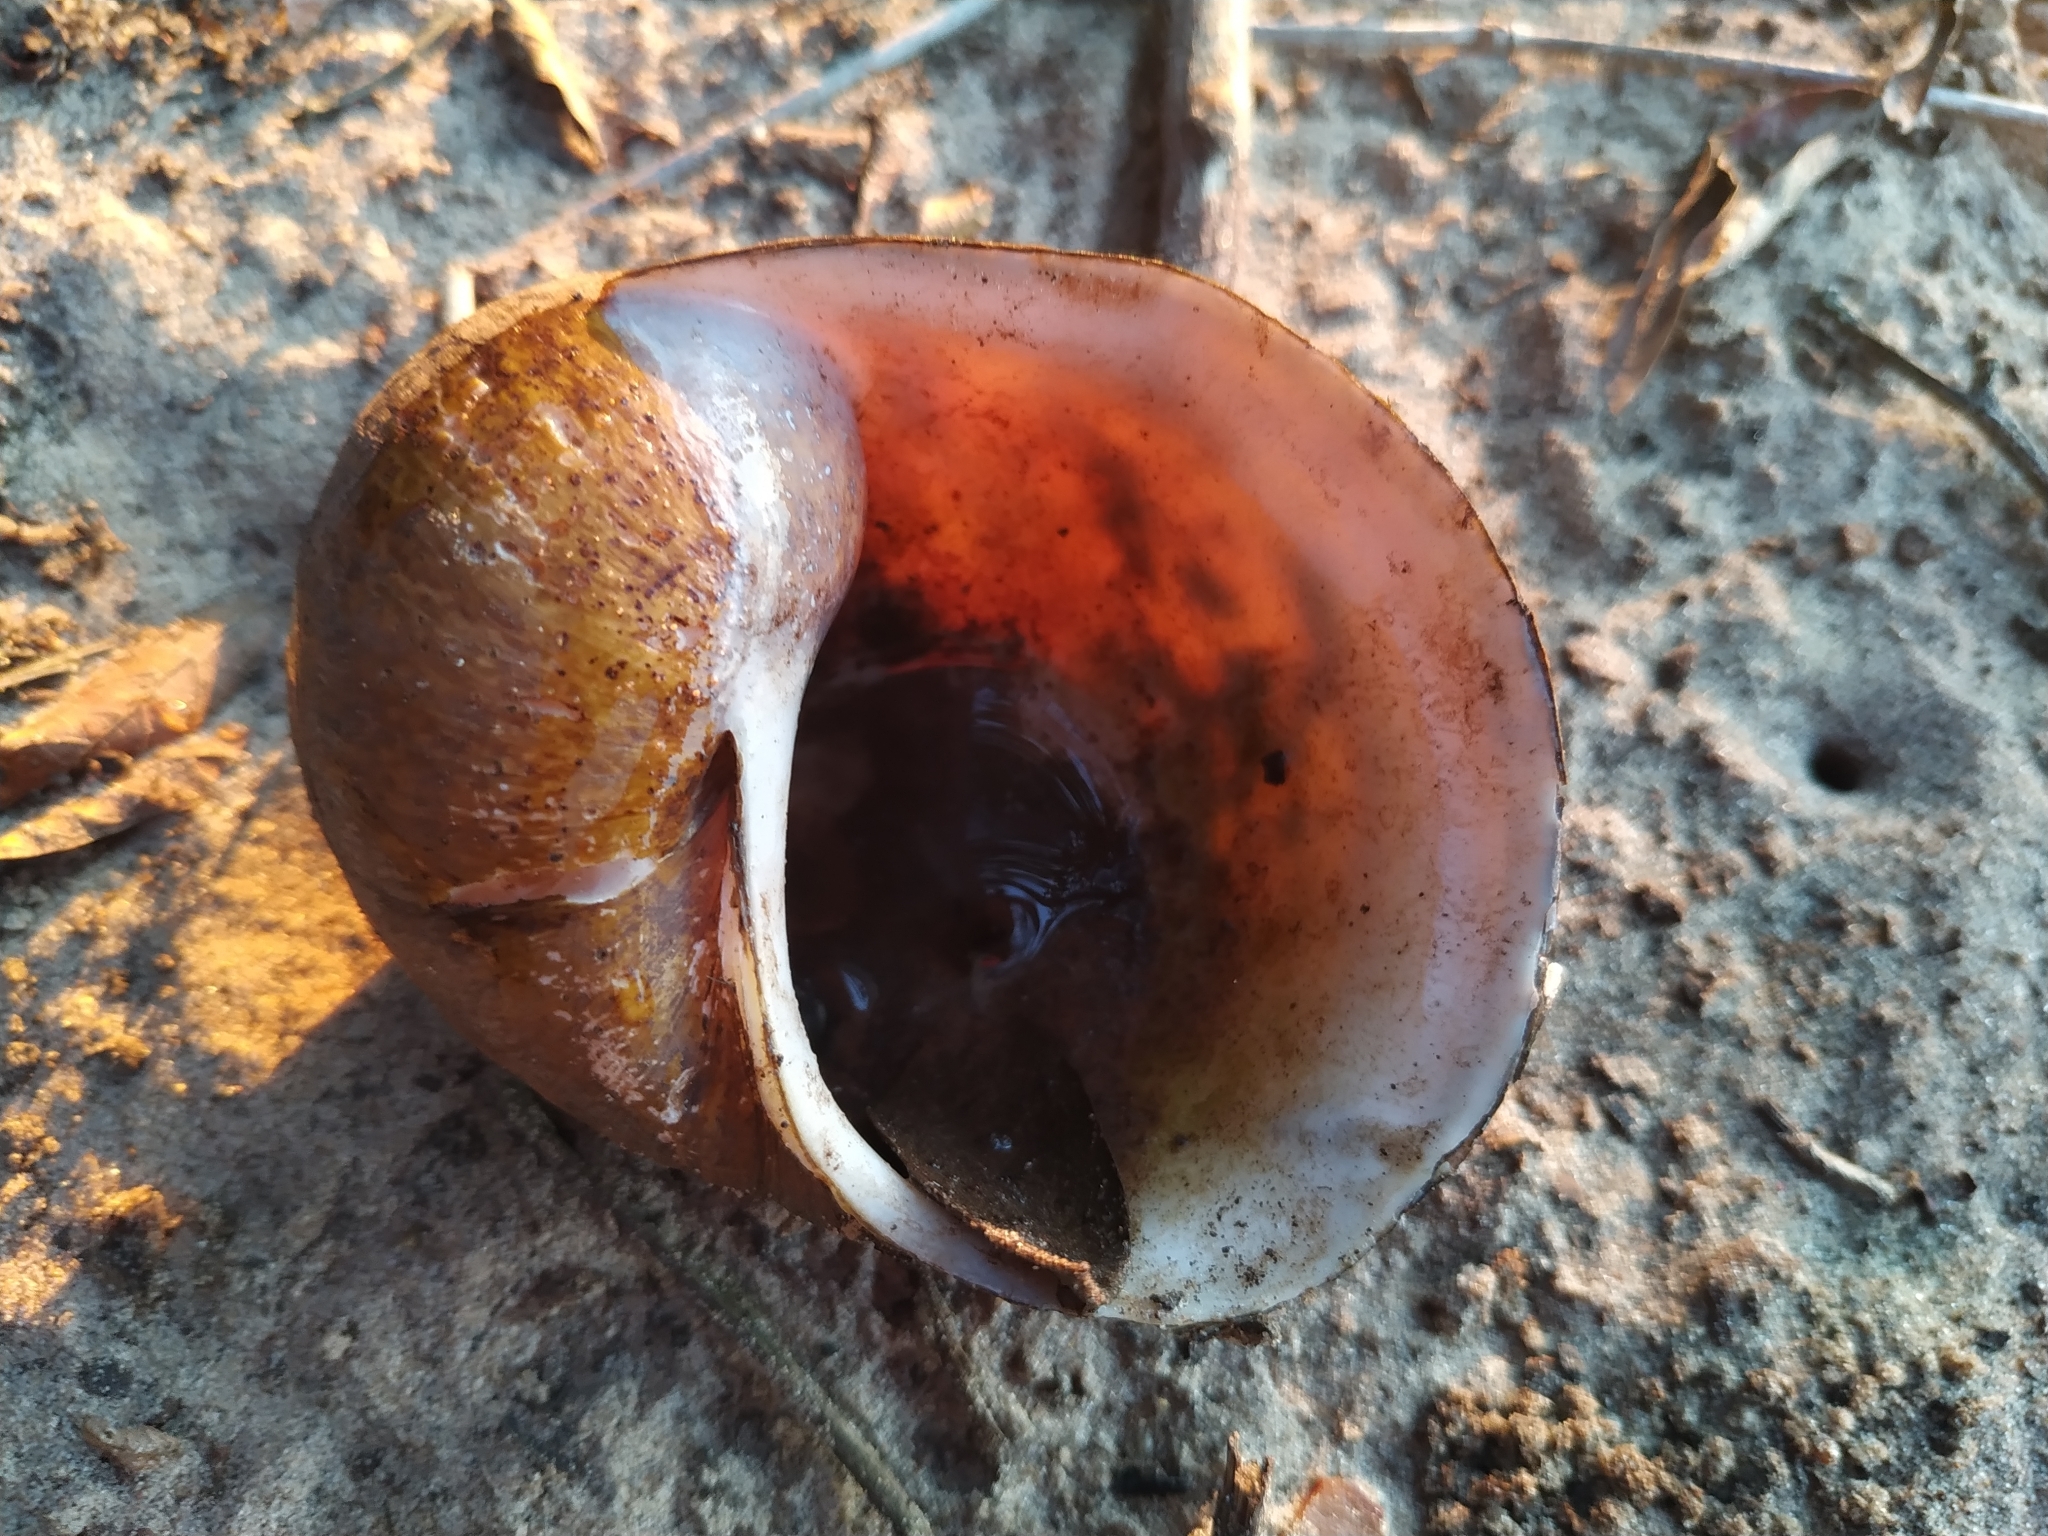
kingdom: Animalia
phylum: Mollusca
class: Gastropoda
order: Architaenioglossa
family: Ampullariidae
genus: Pomacea
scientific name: Pomacea megastoma
